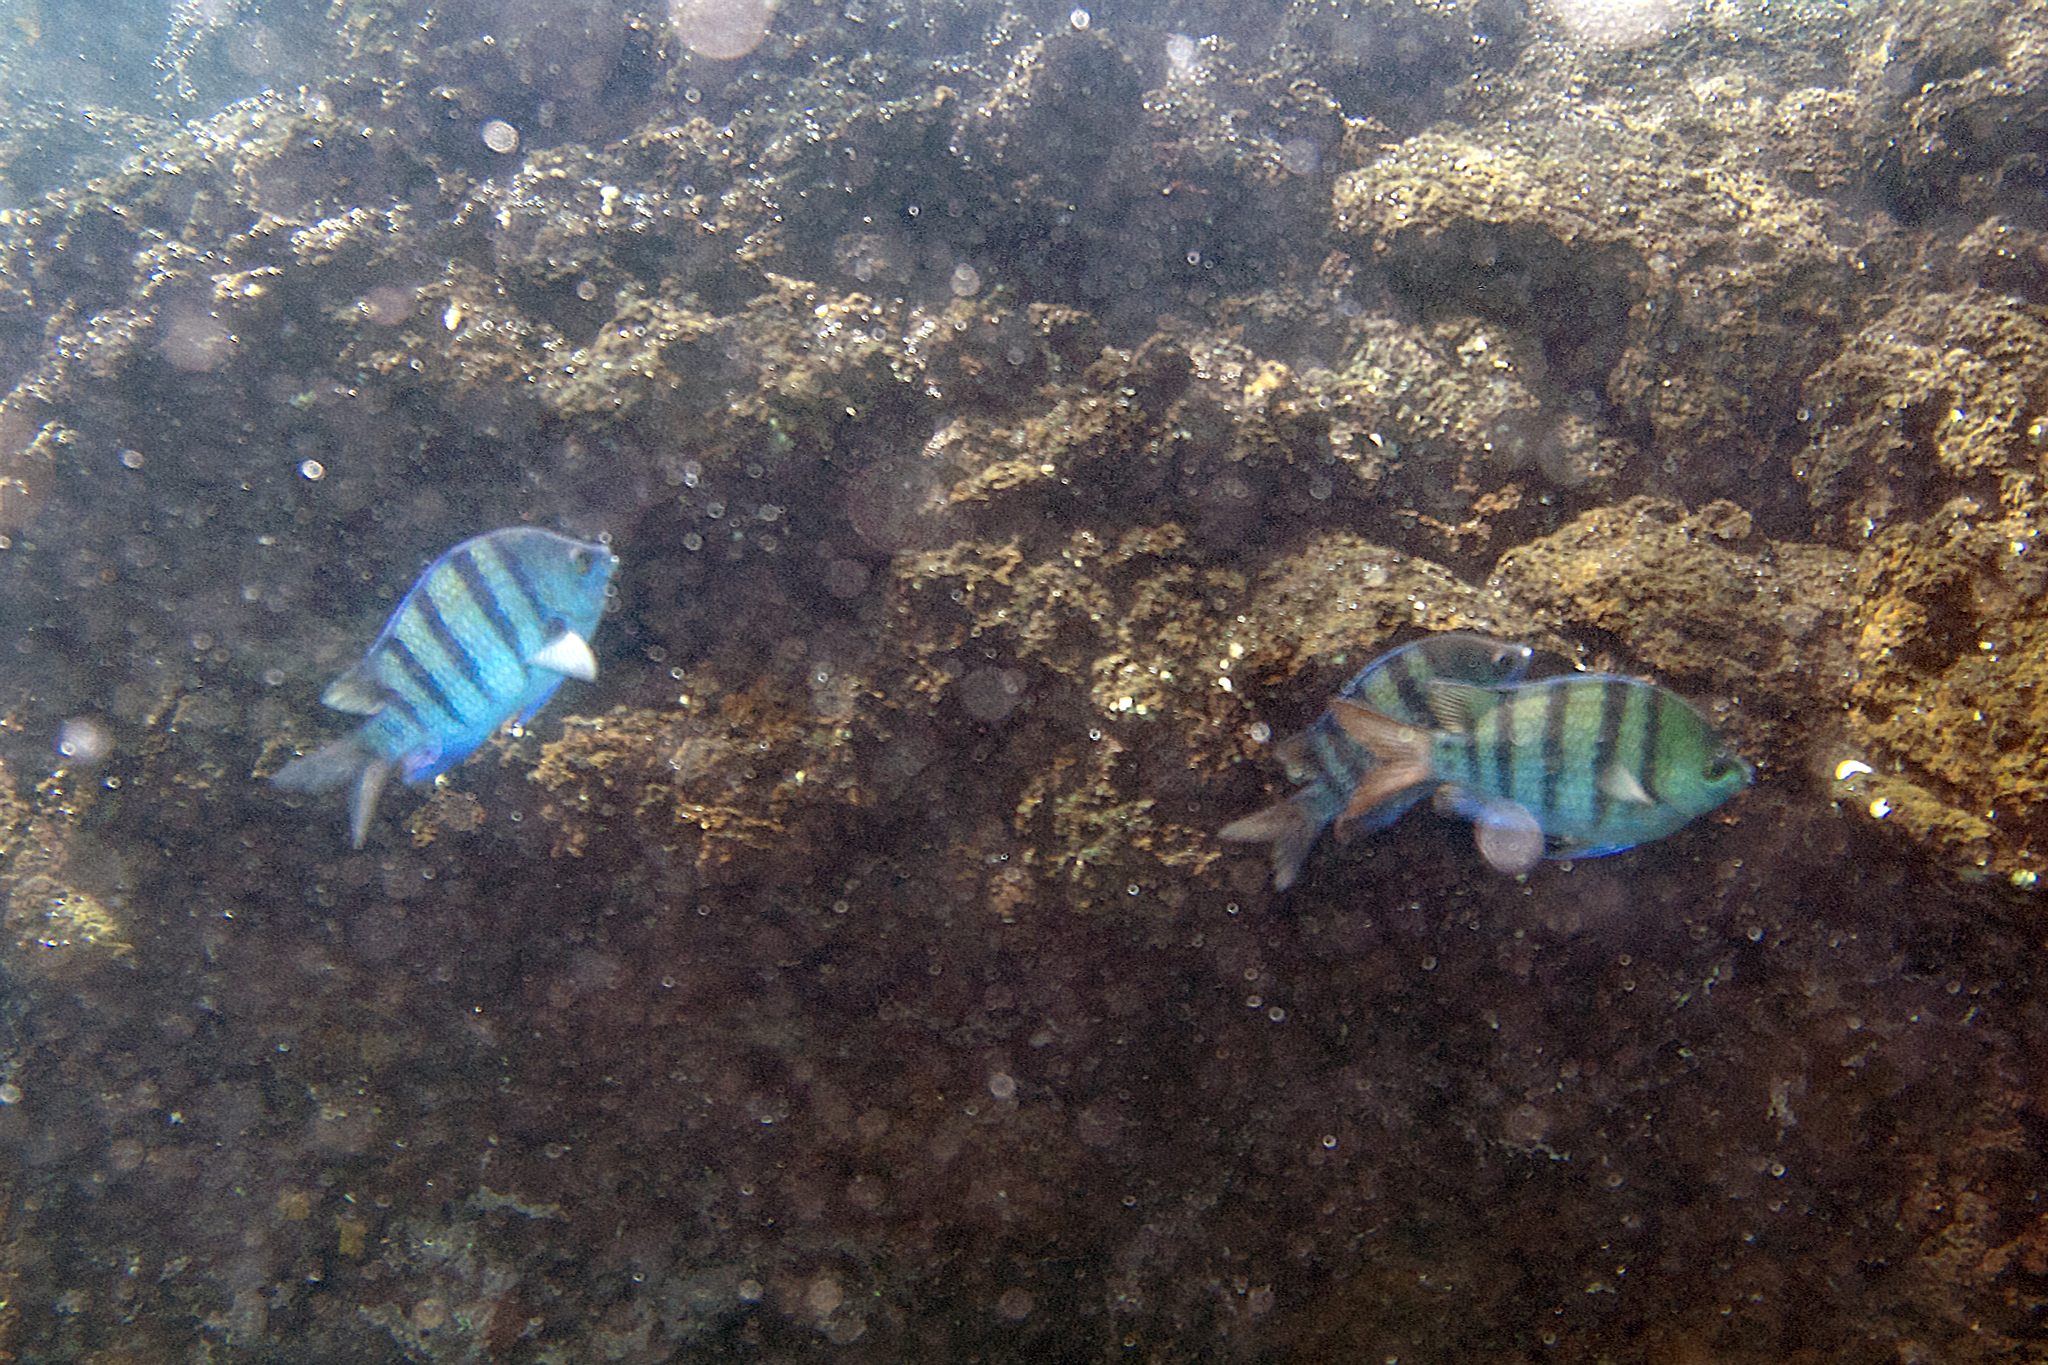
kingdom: Animalia
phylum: Chordata
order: Perciformes
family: Pomacentridae
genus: Abudefduf
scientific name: Abudefduf troschelii
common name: Panamic sergeant major
